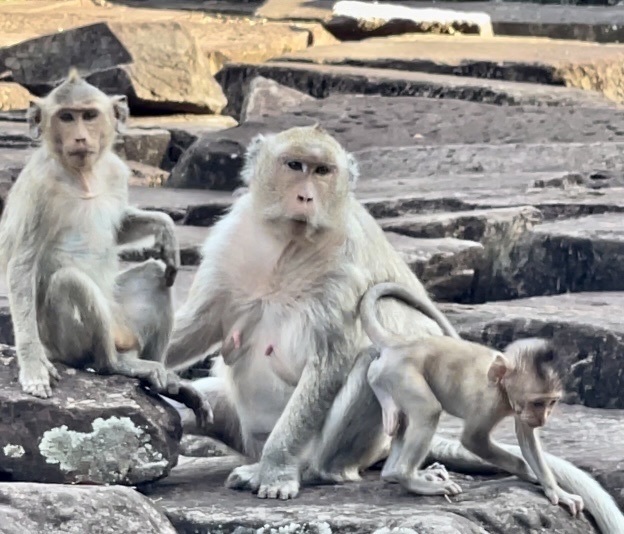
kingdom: Animalia
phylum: Chordata
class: Mammalia
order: Primates
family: Cercopithecidae
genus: Macaca
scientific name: Macaca fascicularis
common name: Crab-eating macaque
